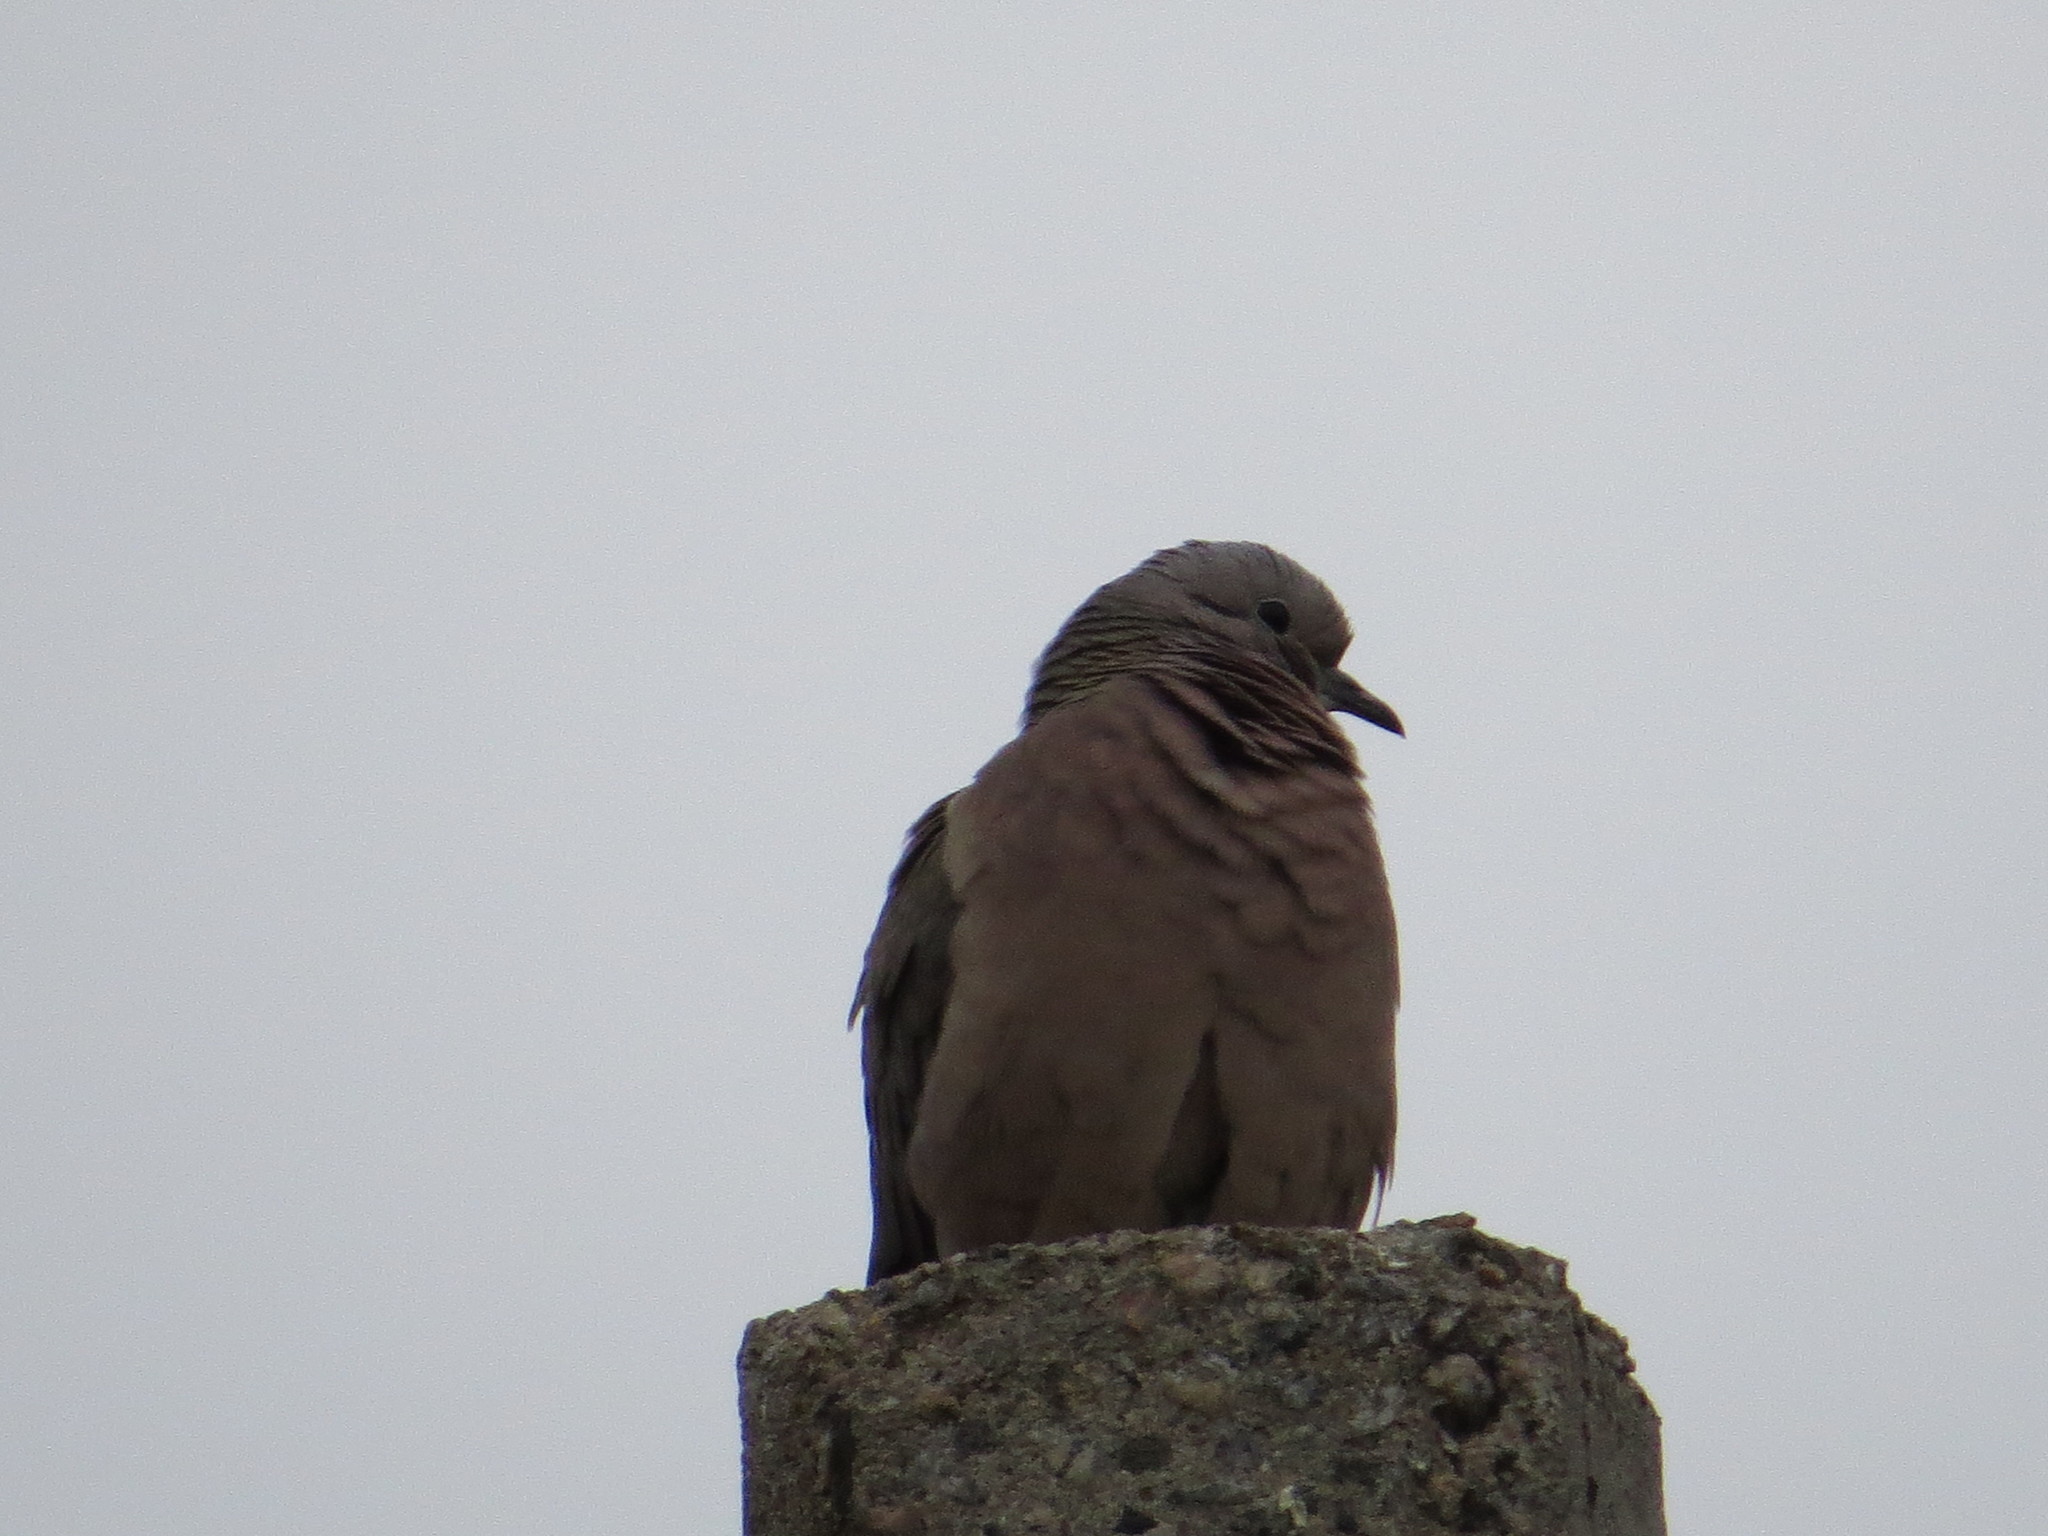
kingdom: Animalia
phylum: Chordata
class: Aves
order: Columbiformes
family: Columbidae
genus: Zenaida
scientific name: Zenaida auriculata
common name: Eared dove
